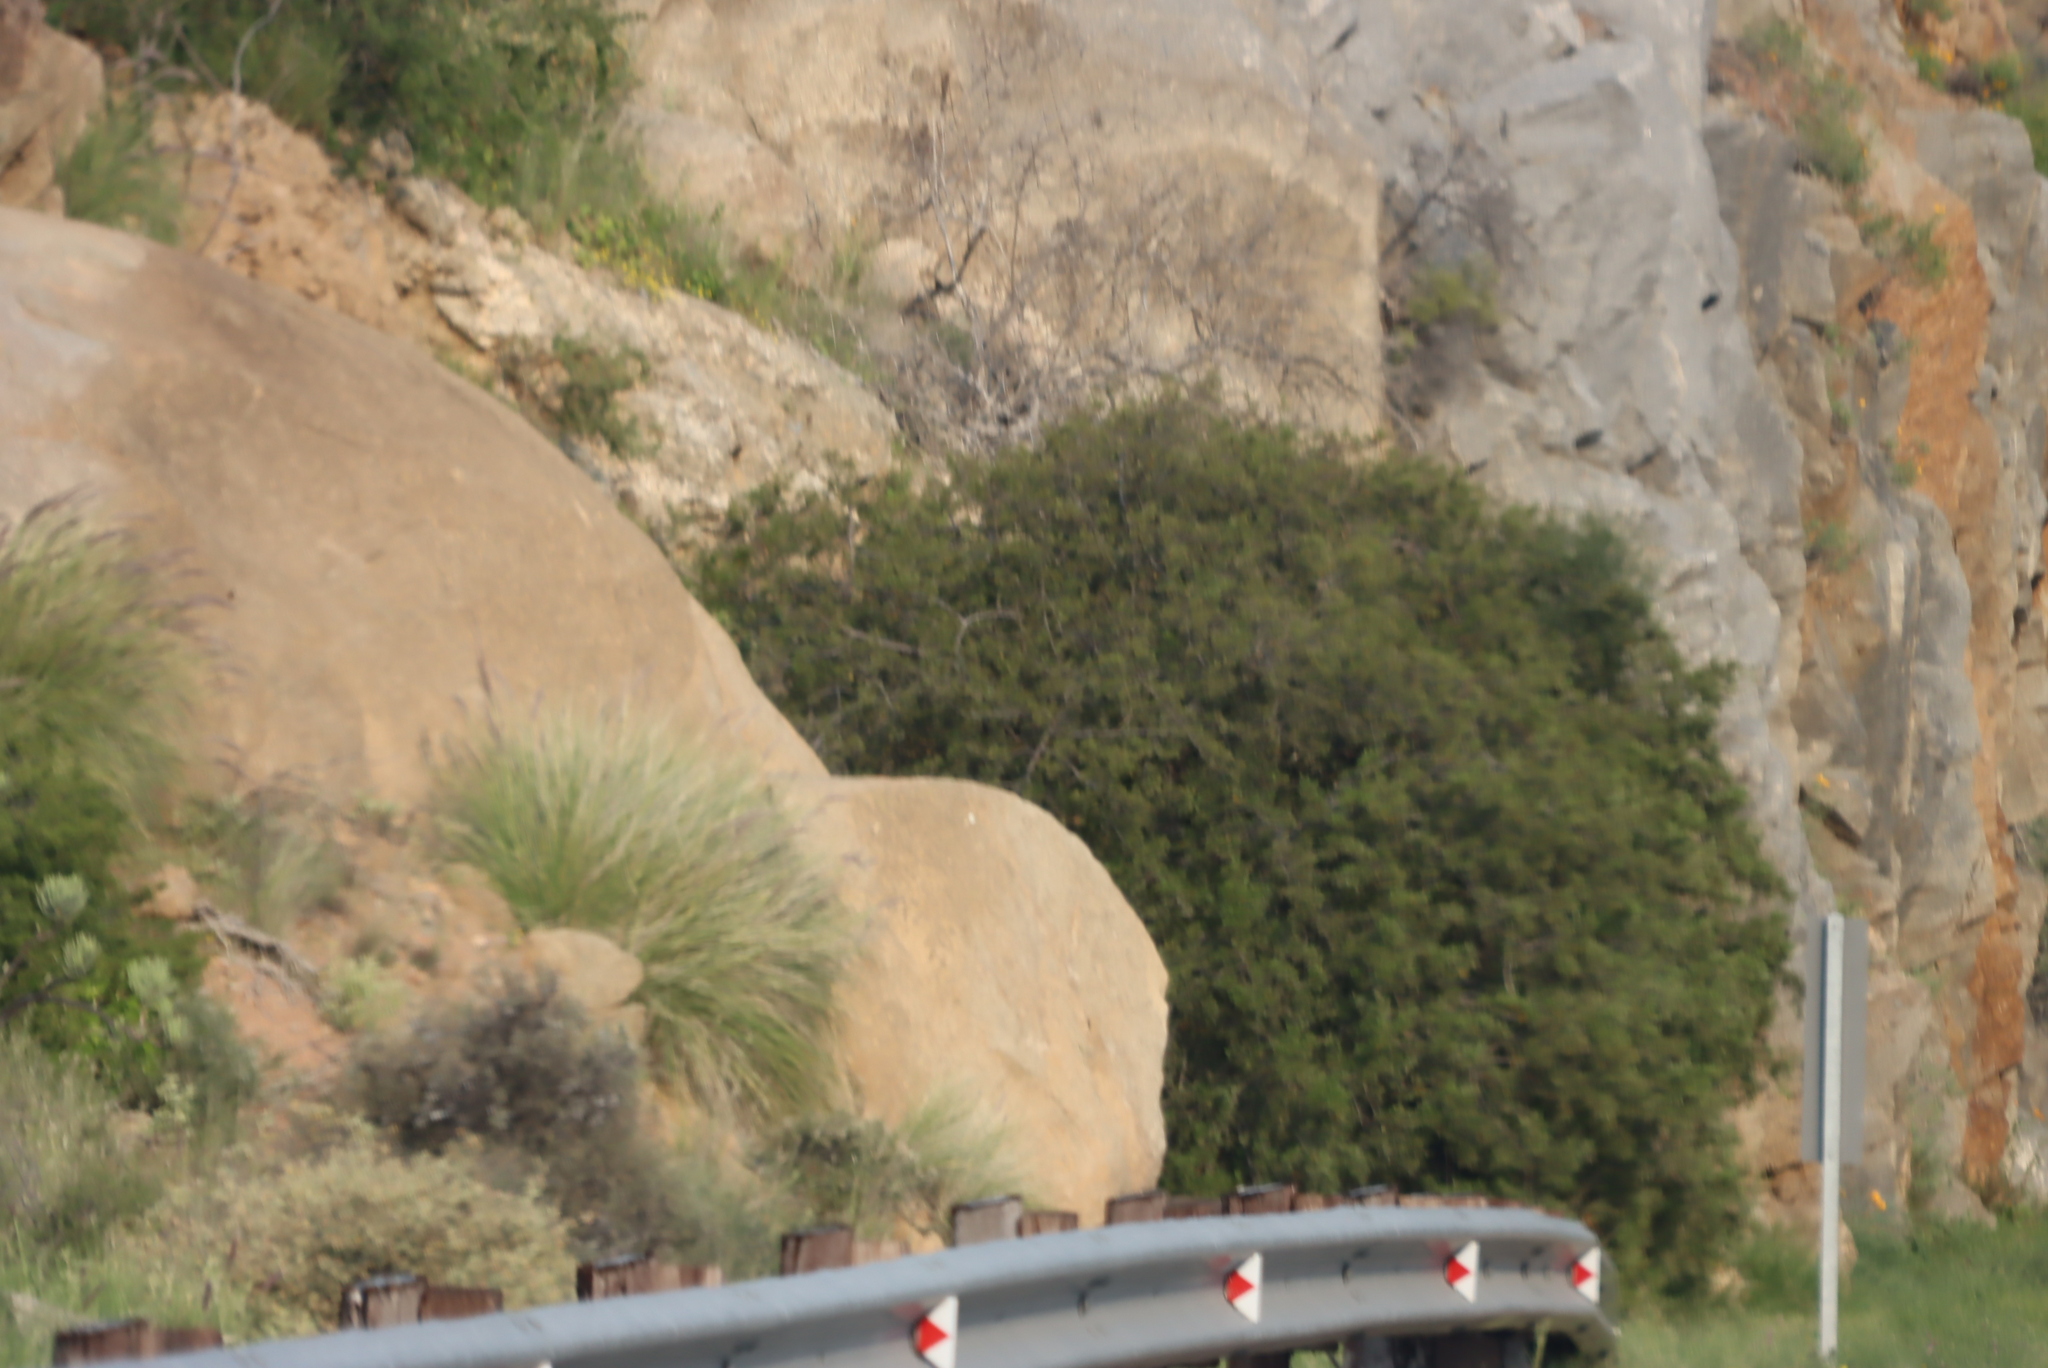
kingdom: Plantae
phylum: Tracheophyta
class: Liliopsida
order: Poales
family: Poaceae
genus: Cenchrus
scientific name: Cenchrus setaceus
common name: Crimson fountaingrass
